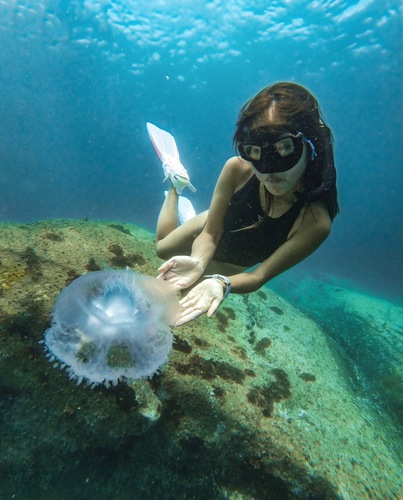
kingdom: Animalia
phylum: Cnidaria
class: Scyphozoa
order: Rhizostomeae
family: Cepheidae
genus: Netrostoma
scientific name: Netrostoma setouchianum
